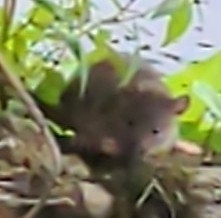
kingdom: Animalia
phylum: Chordata
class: Mammalia
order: Rodentia
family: Muridae
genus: Rattus
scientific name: Rattus norvegicus
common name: Brown rat
